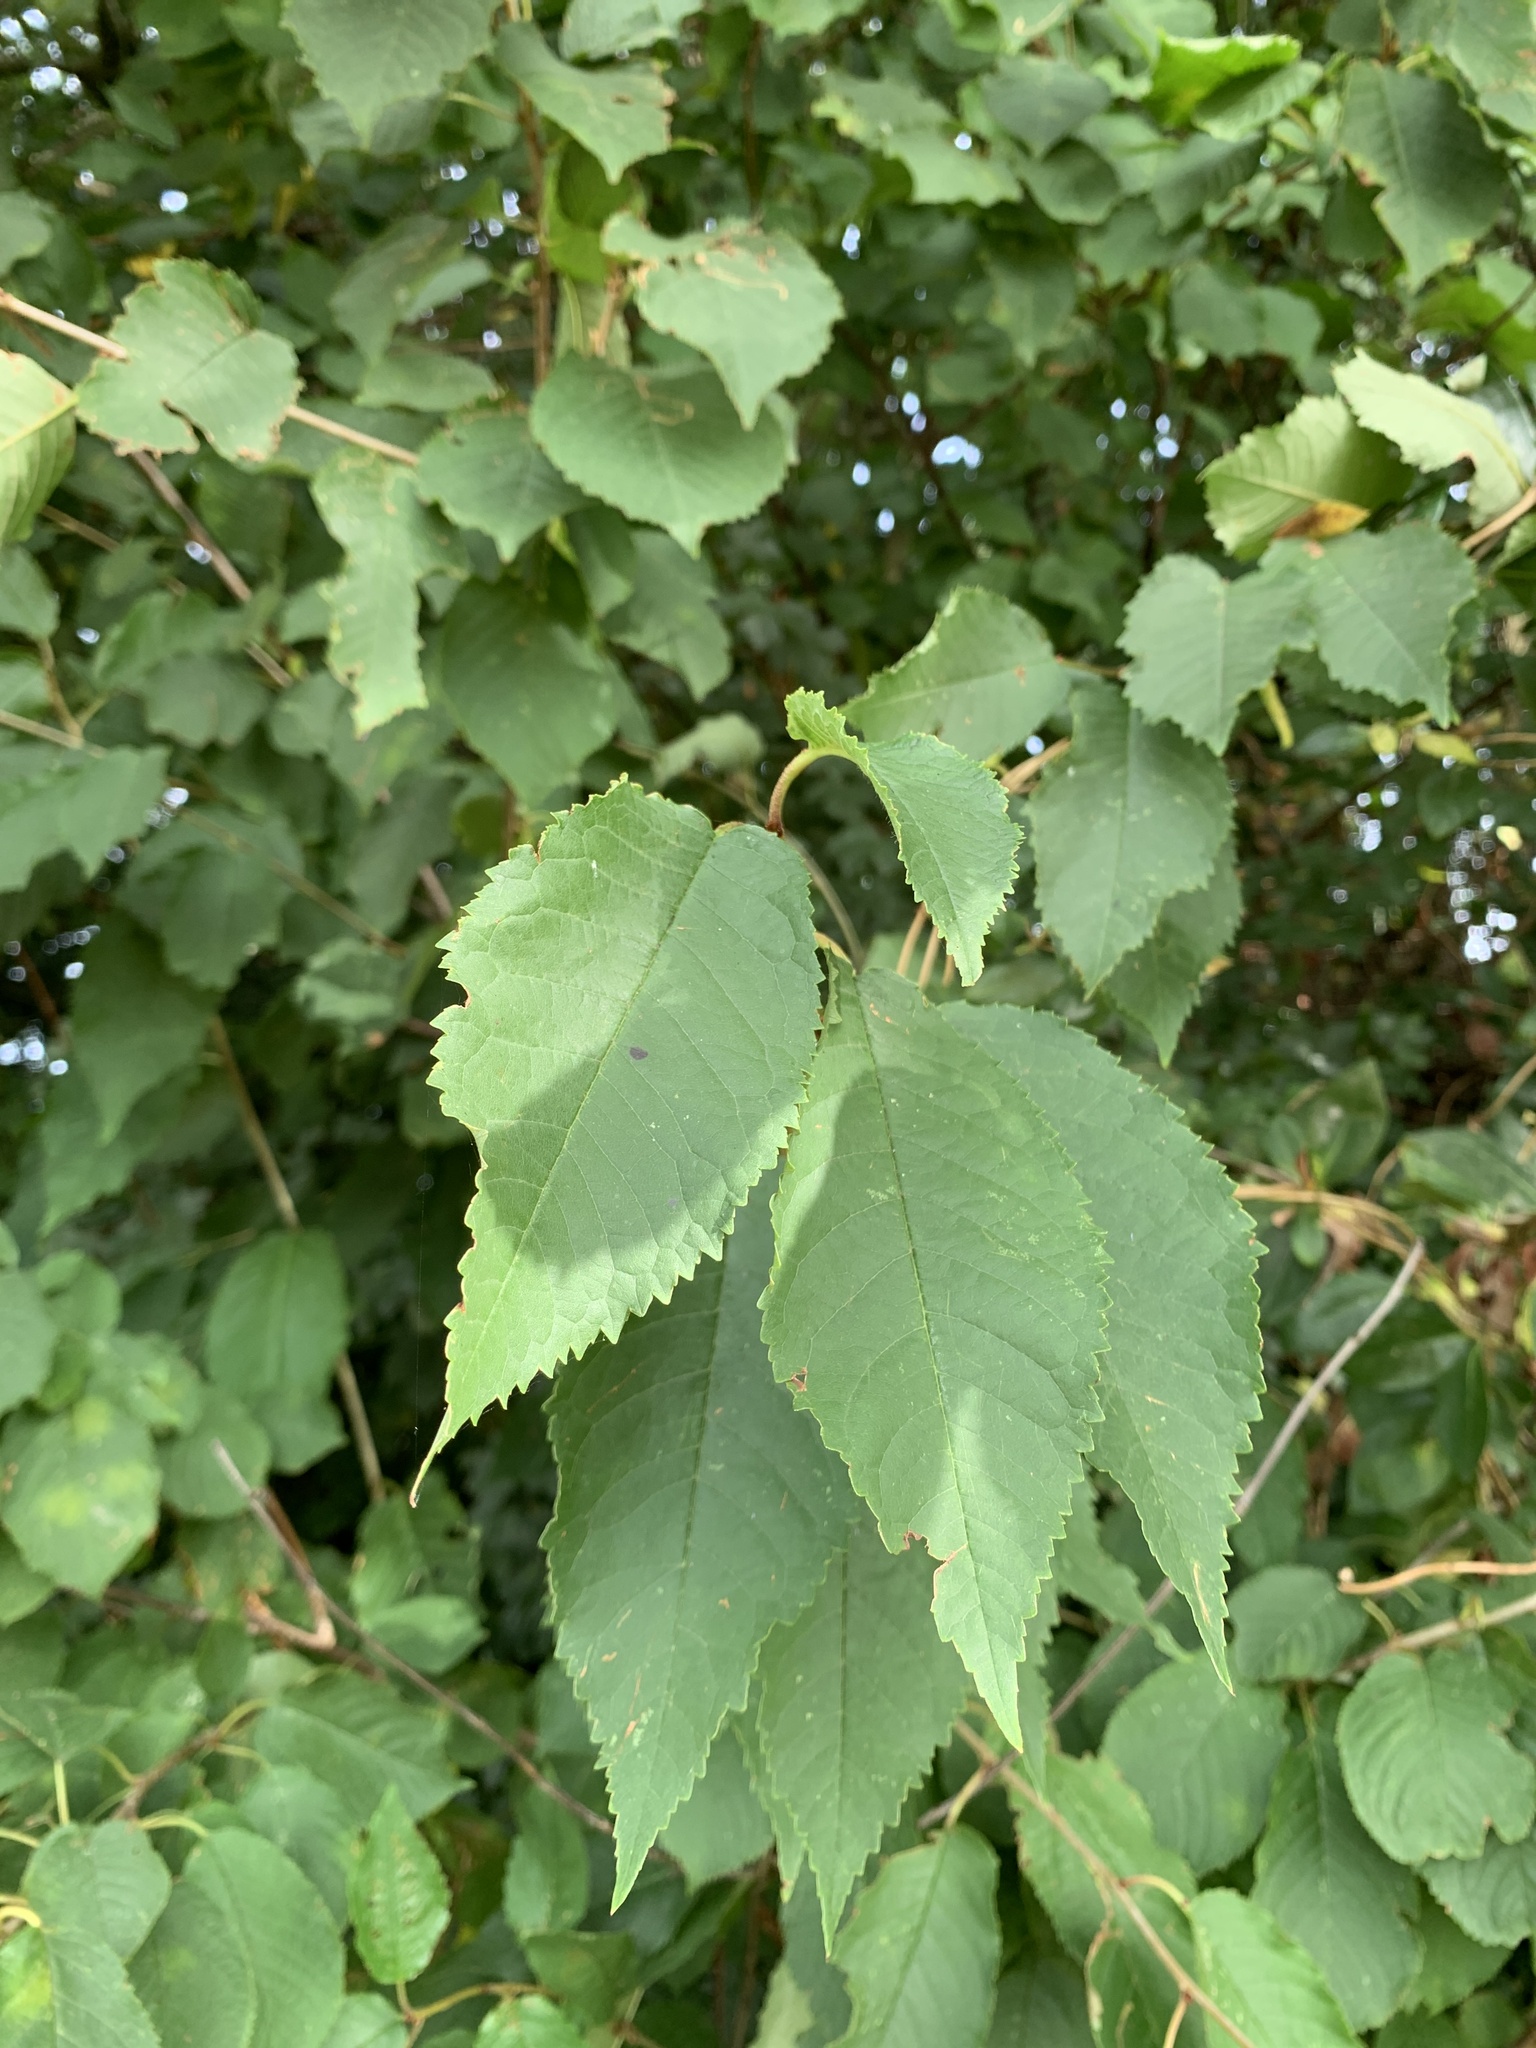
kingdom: Plantae
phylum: Tracheophyta
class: Magnoliopsida
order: Rosales
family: Rosaceae
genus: Prunus
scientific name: Prunus avium
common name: Sweet cherry
